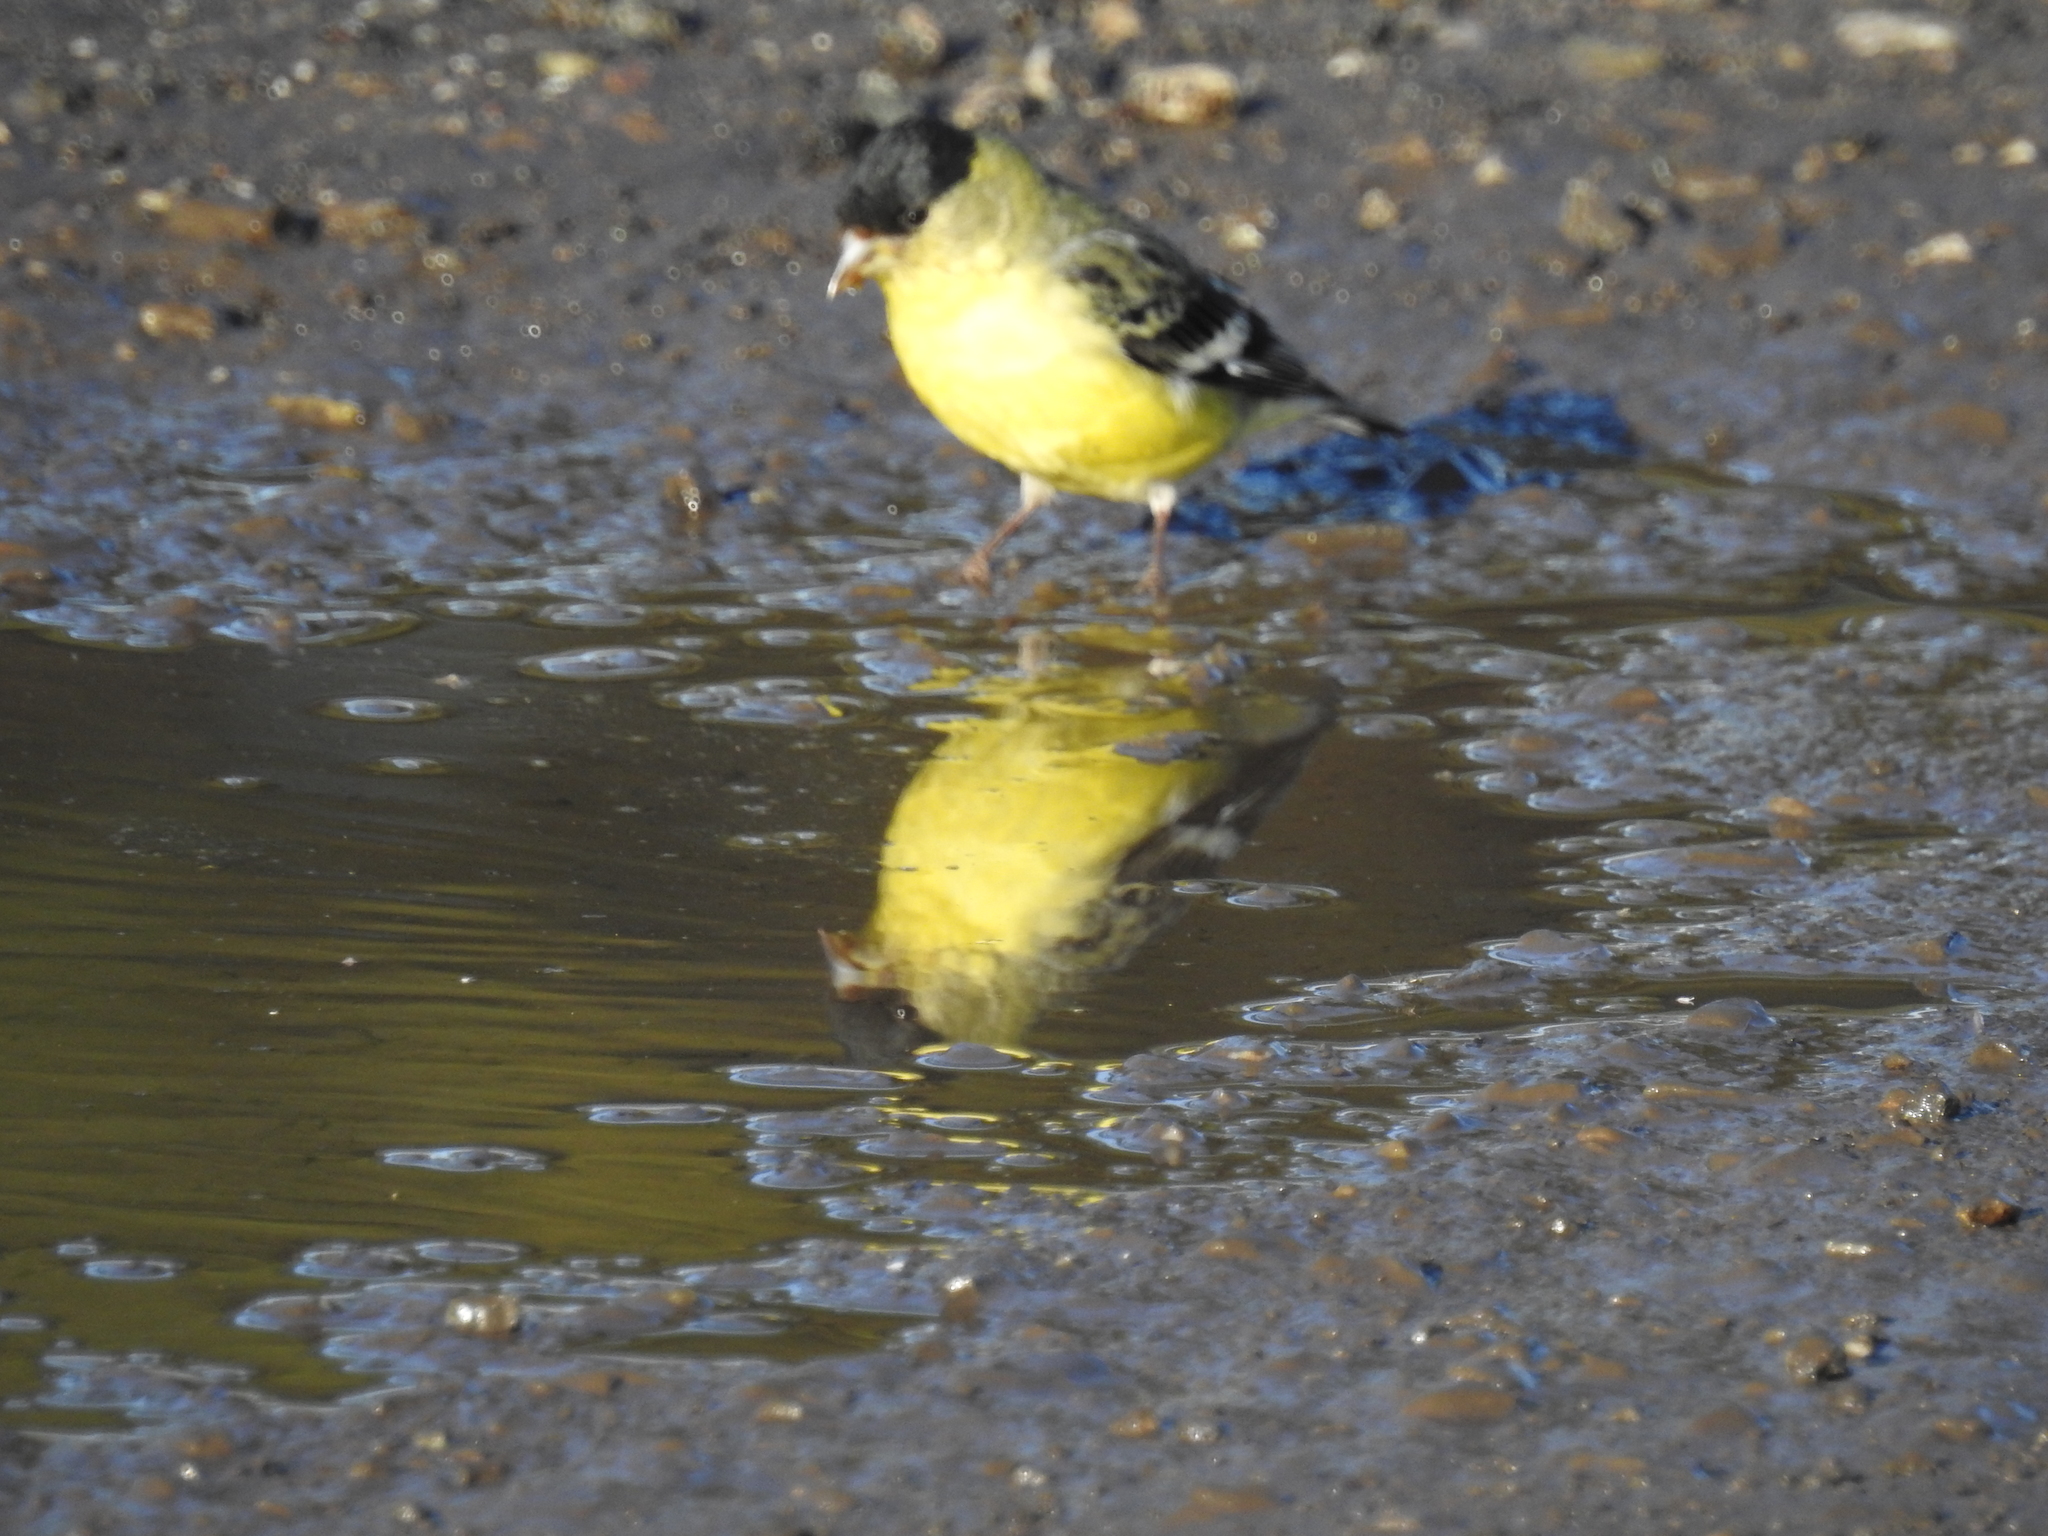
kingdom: Animalia
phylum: Chordata
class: Aves
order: Passeriformes
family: Fringillidae
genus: Spinus
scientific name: Spinus psaltria
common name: Lesser goldfinch
